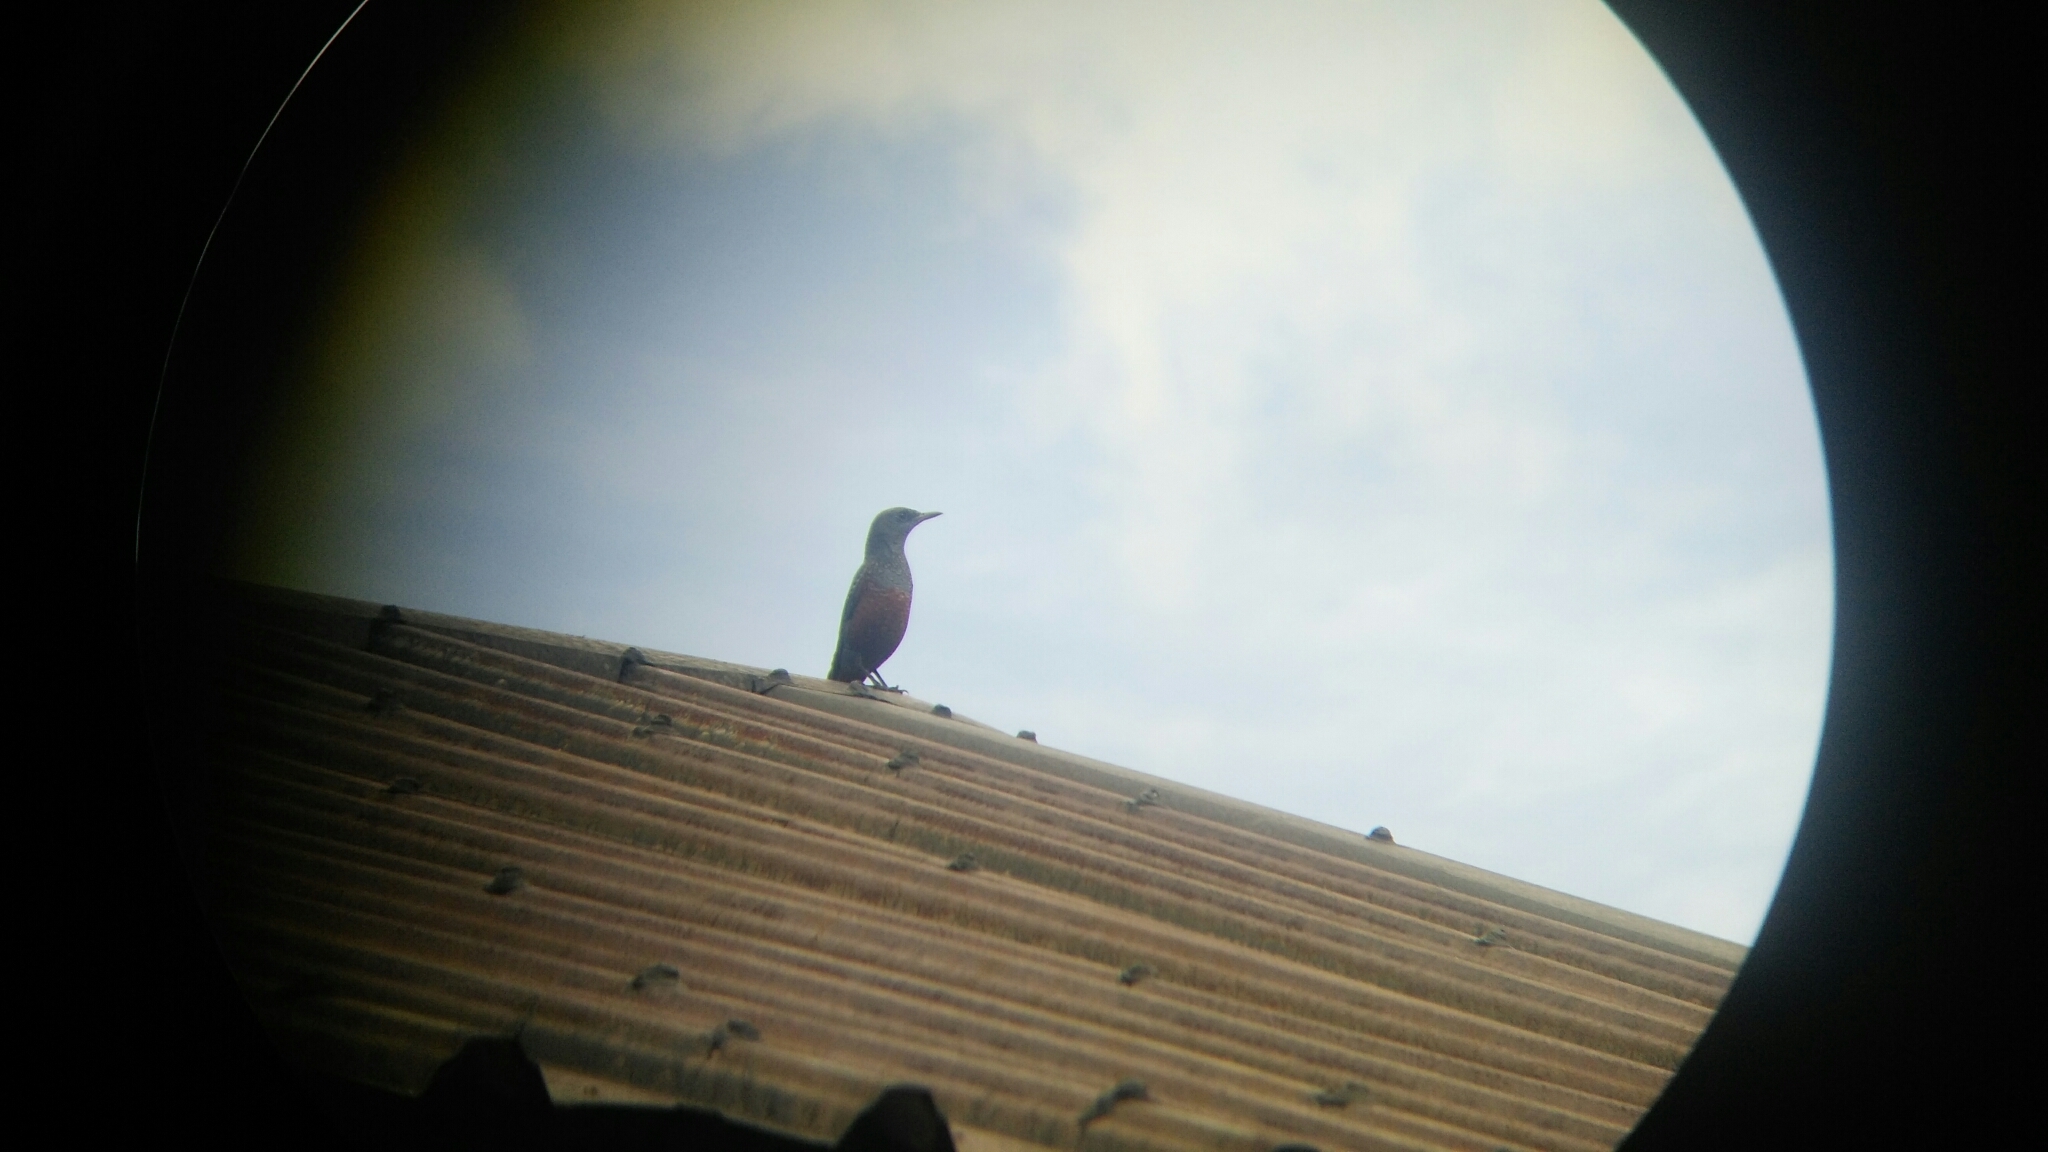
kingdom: Animalia
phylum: Chordata
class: Aves
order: Passeriformes
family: Muscicapidae
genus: Monticola
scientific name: Monticola solitarius
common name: Blue rock thrush
